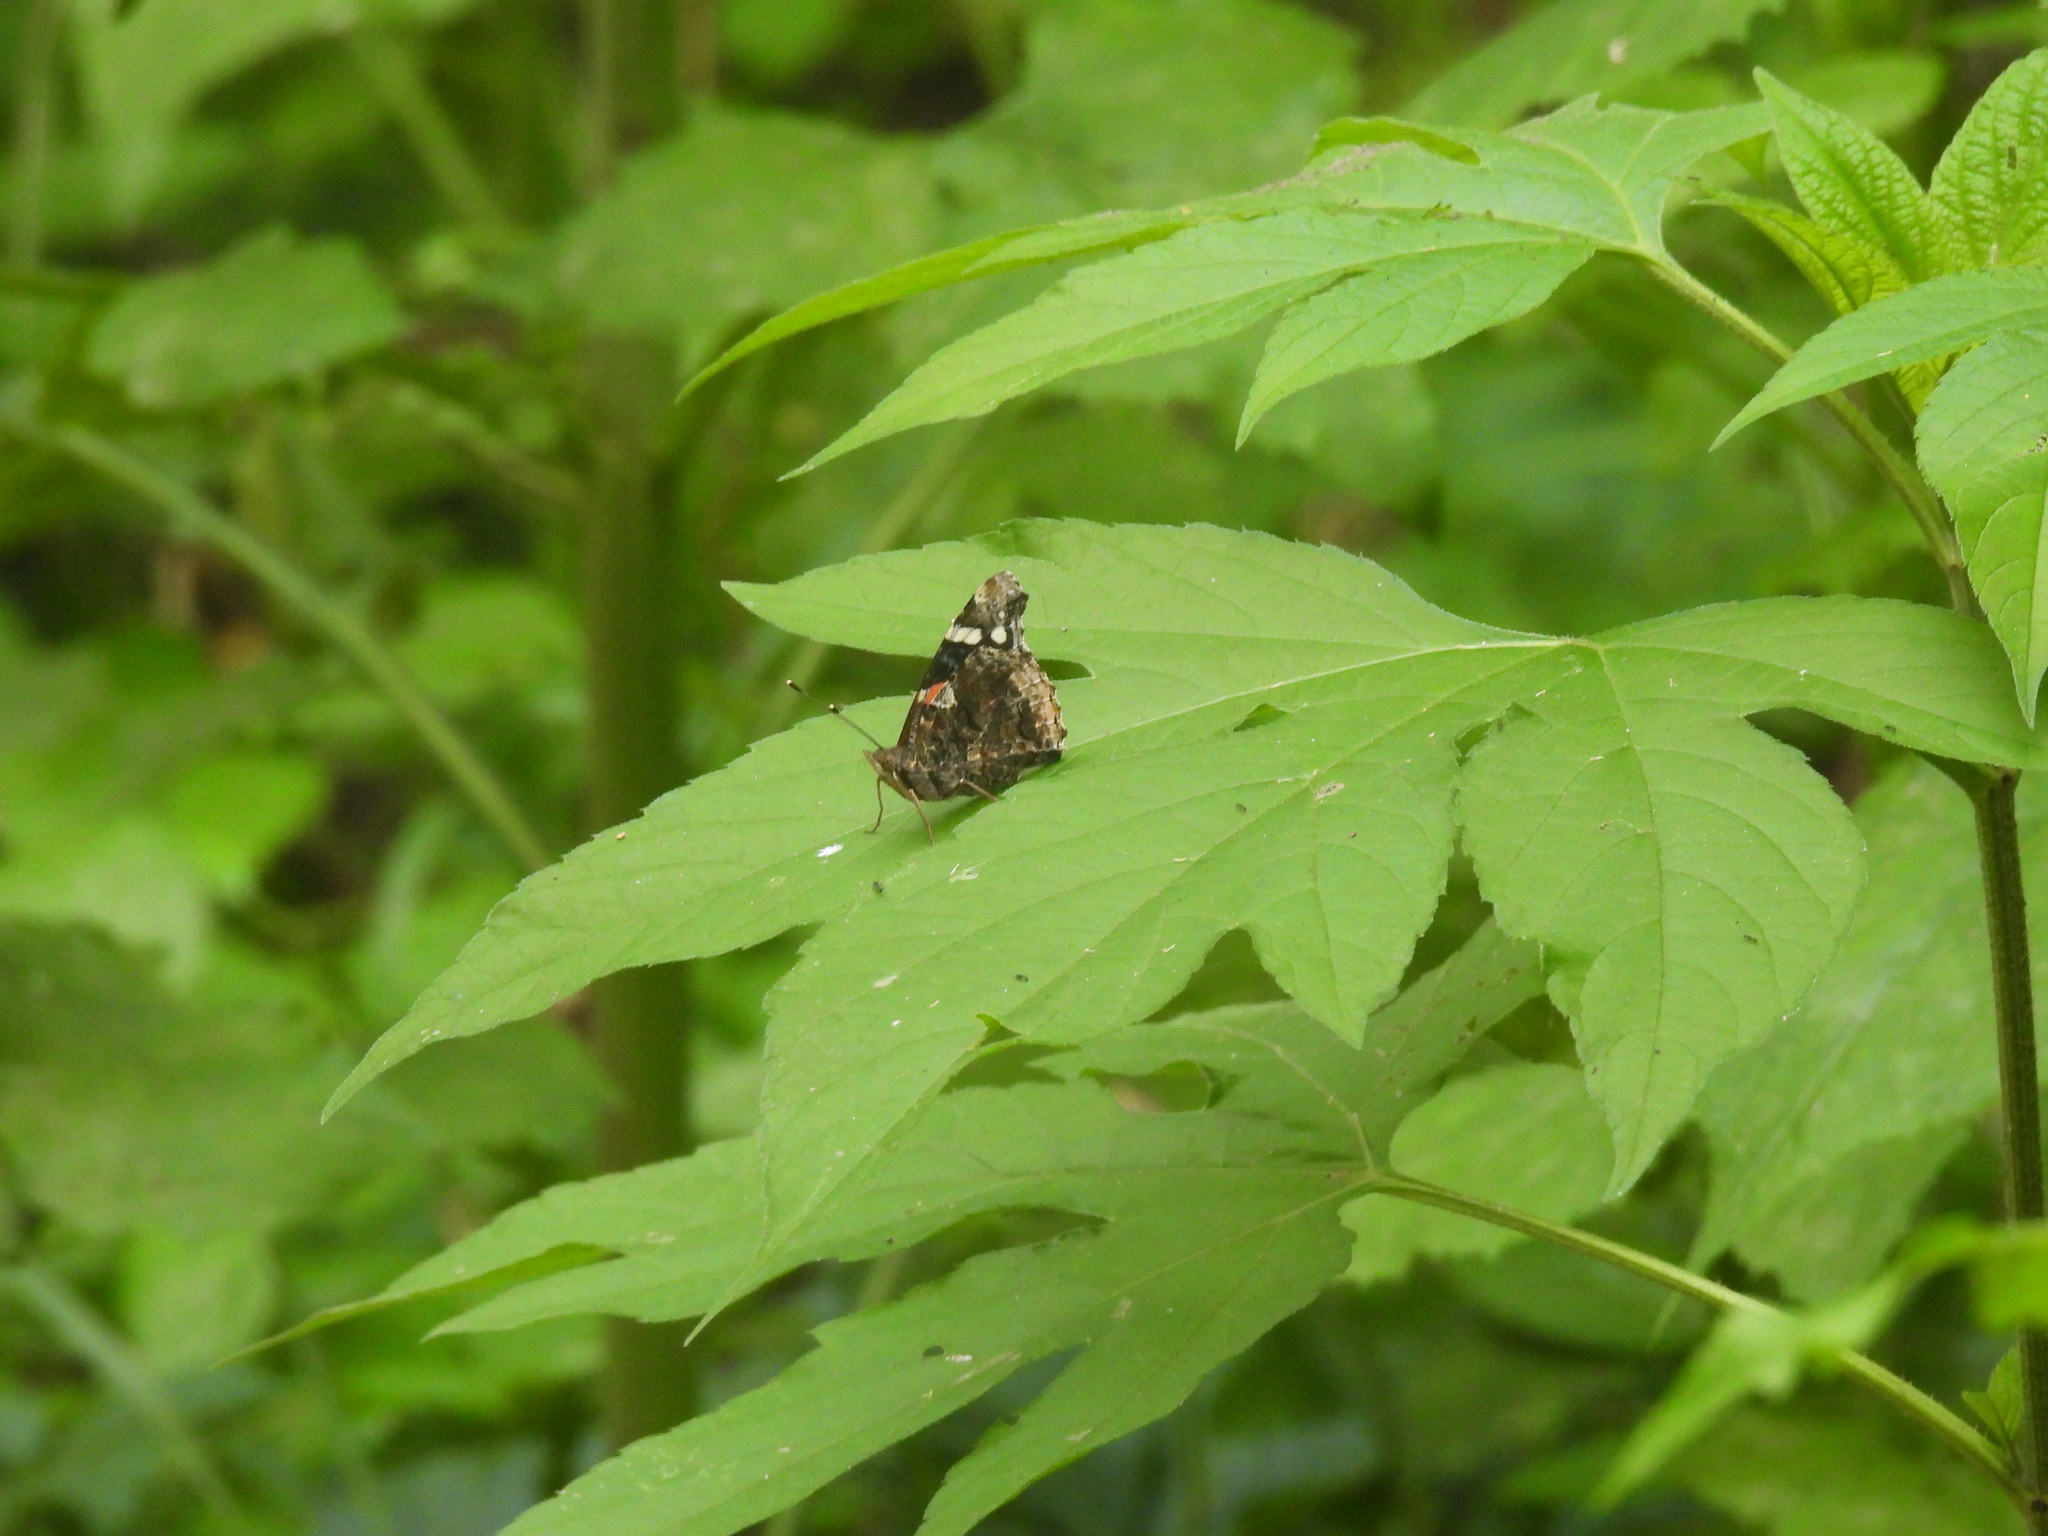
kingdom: Animalia
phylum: Arthropoda
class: Insecta
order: Lepidoptera
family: Nymphalidae
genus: Vanessa
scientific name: Vanessa atalanta
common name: Red admiral
